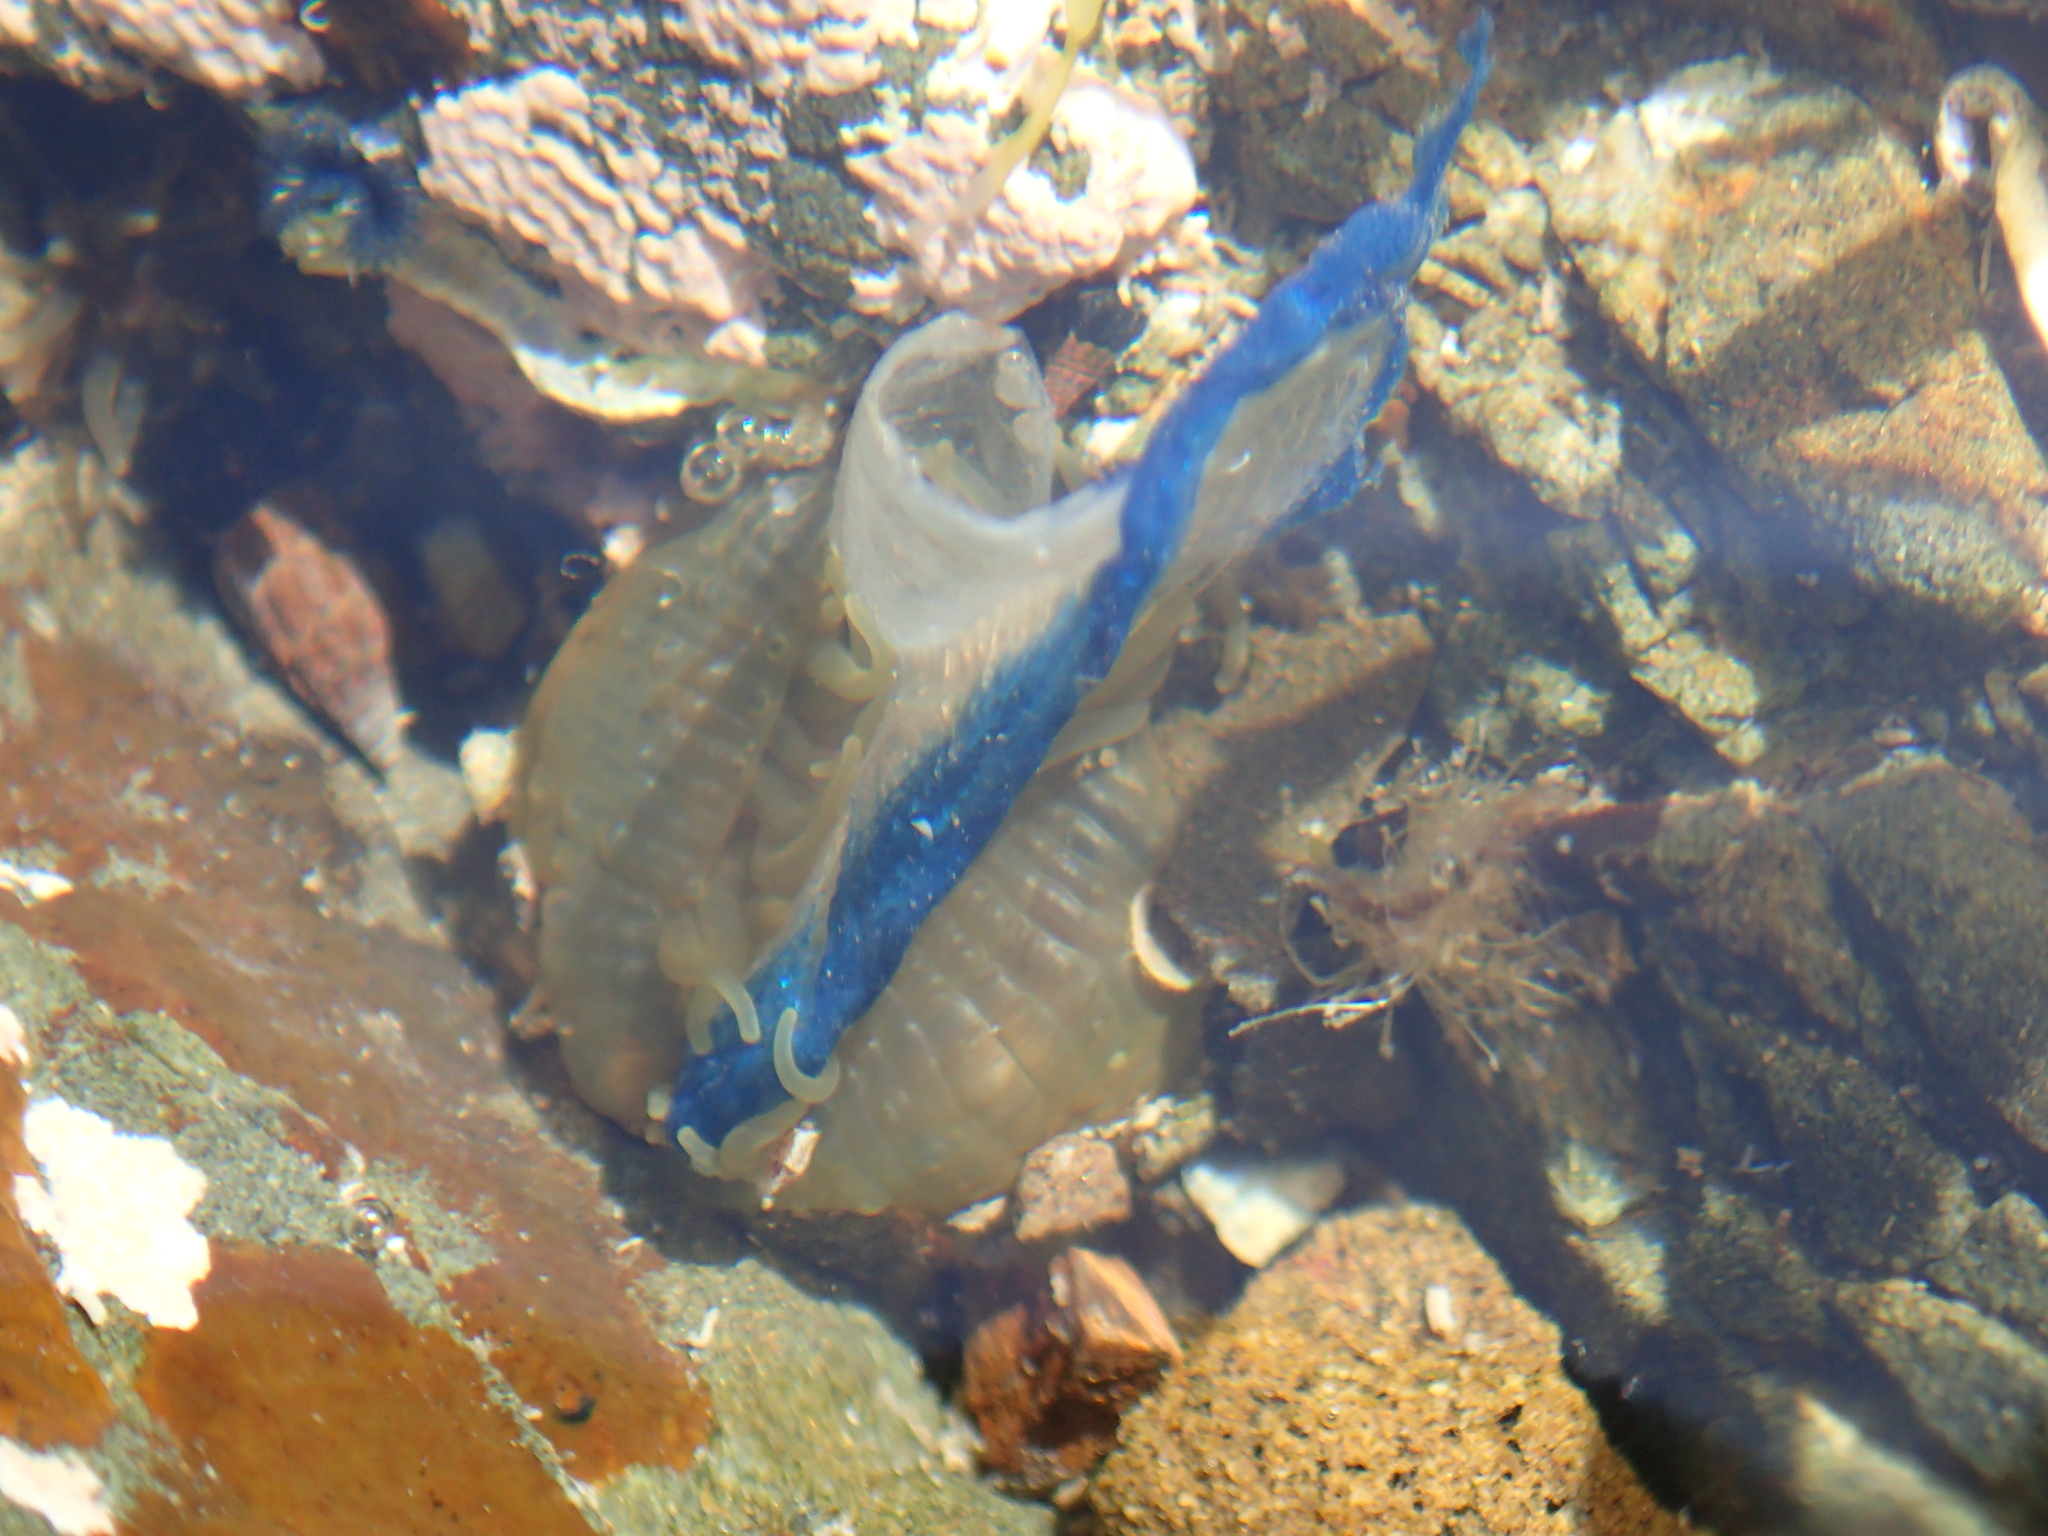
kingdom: Animalia
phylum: Cnidaria
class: Anthozoa
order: Actiniaria
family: Actiniidae
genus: Isactinia
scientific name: Isactinia olivacea
